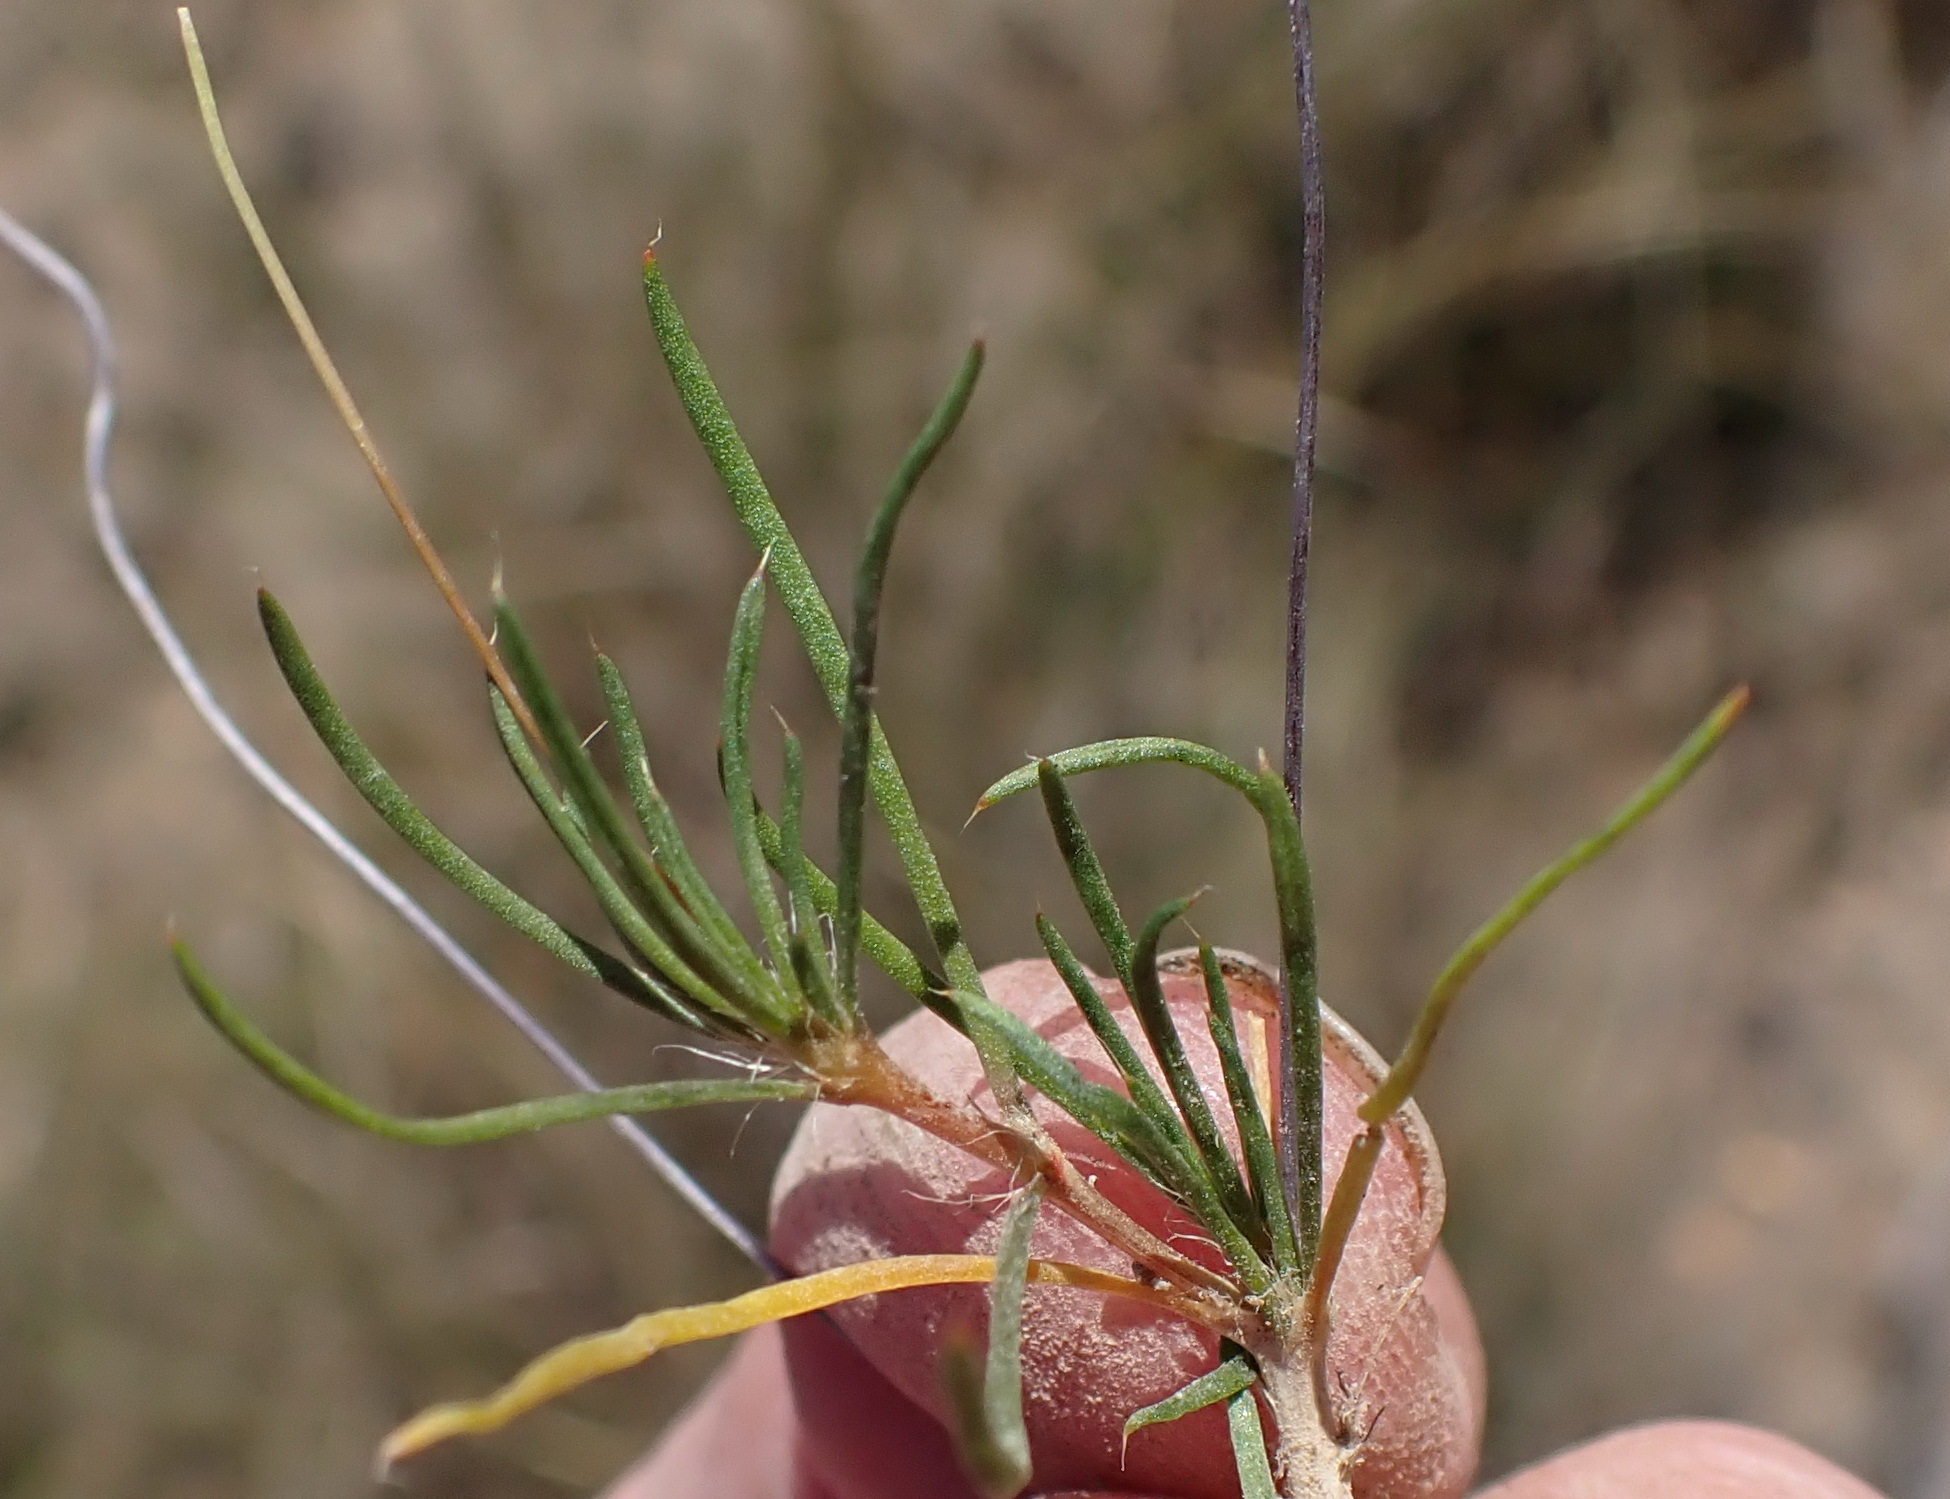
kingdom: Plantae
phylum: Tracheophyta
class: Magnoliopsida
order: Caryophyllales
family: Molluginaceae
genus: Pharnaceum
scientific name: Pharnaceum ciliare
